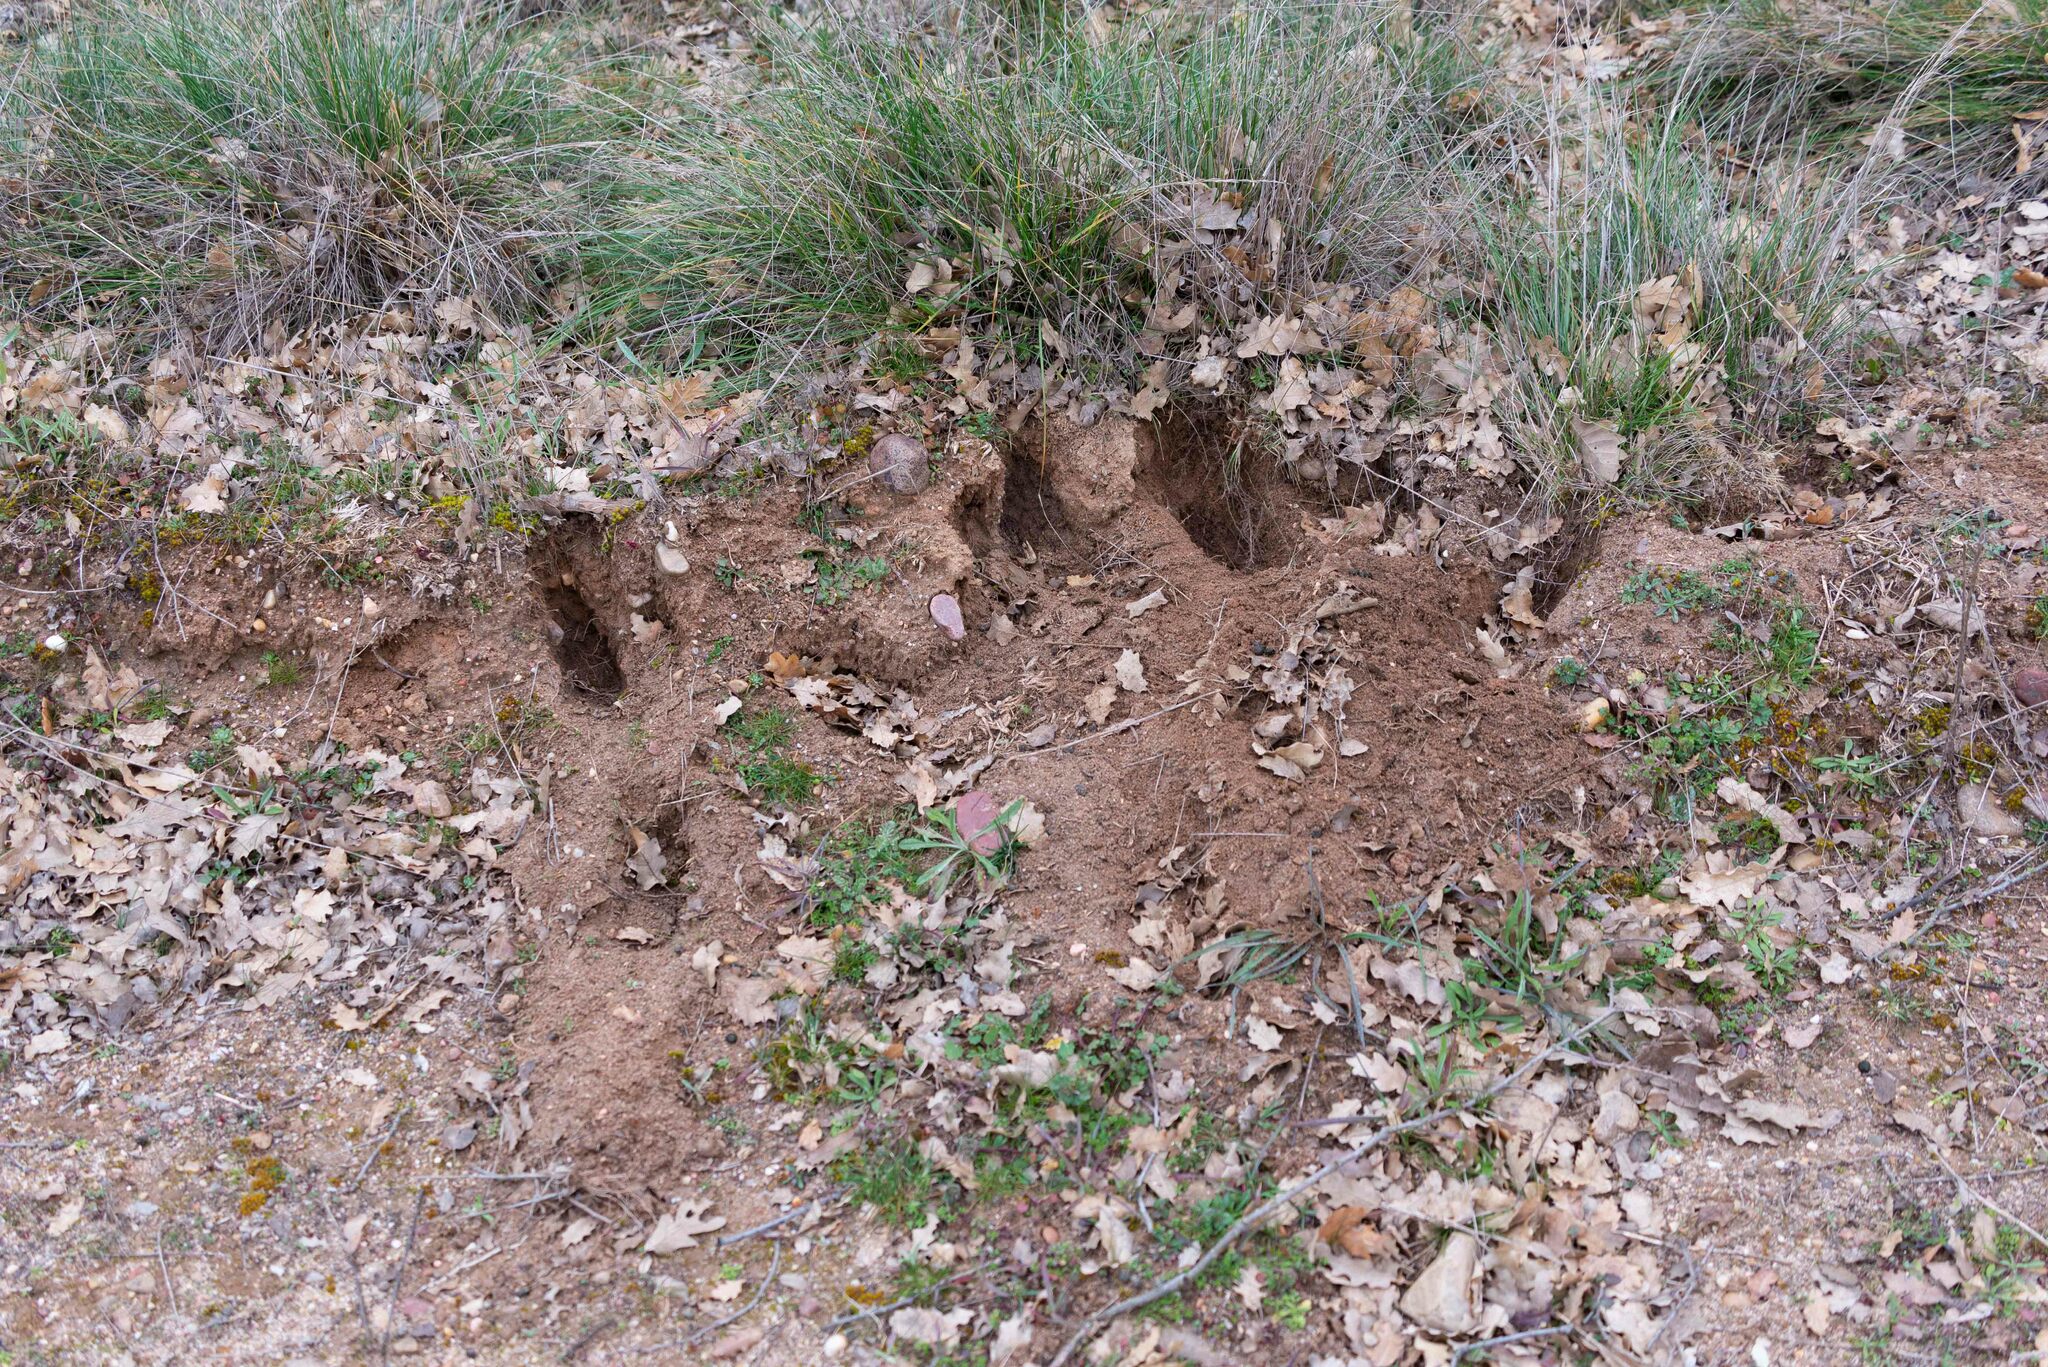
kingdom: Animalia
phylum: Chordata
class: Mammalia
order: Lagomorpha
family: Leporidae
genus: Oryctolagus
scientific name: Oryctolagus cuniculus
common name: European rabbit
